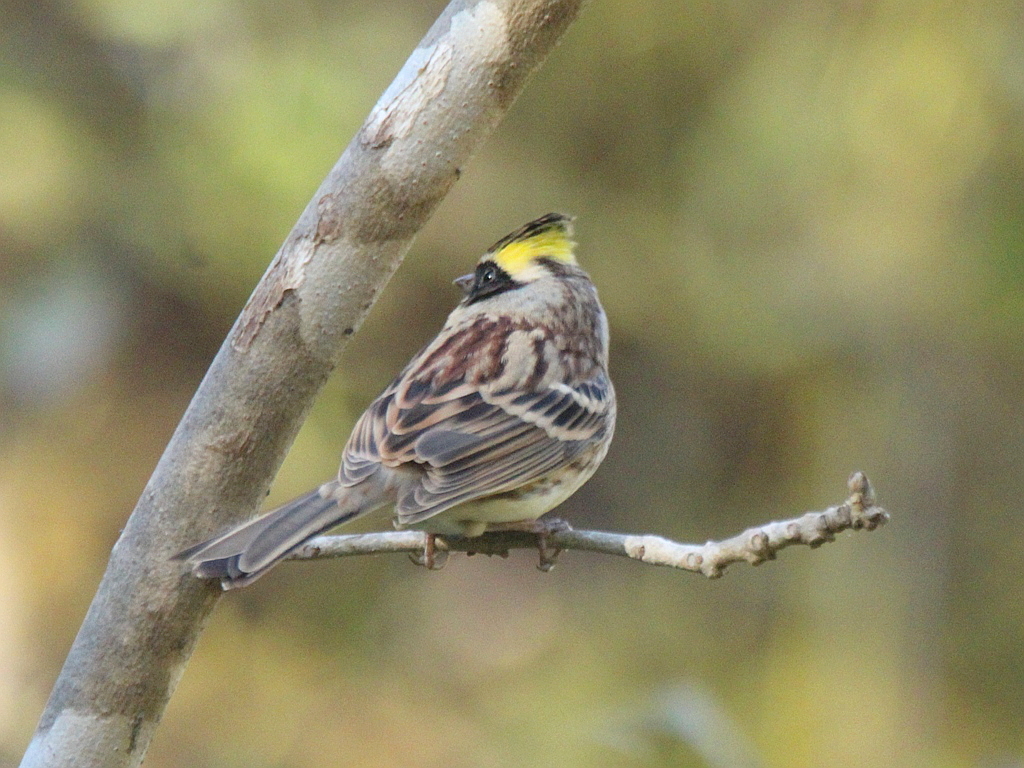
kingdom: Animalia
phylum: Chordata
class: Aves
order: Passeriformes
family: Emberizidae
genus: Emberiza
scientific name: Emberiza elegans
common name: Yellow-throated bunting
